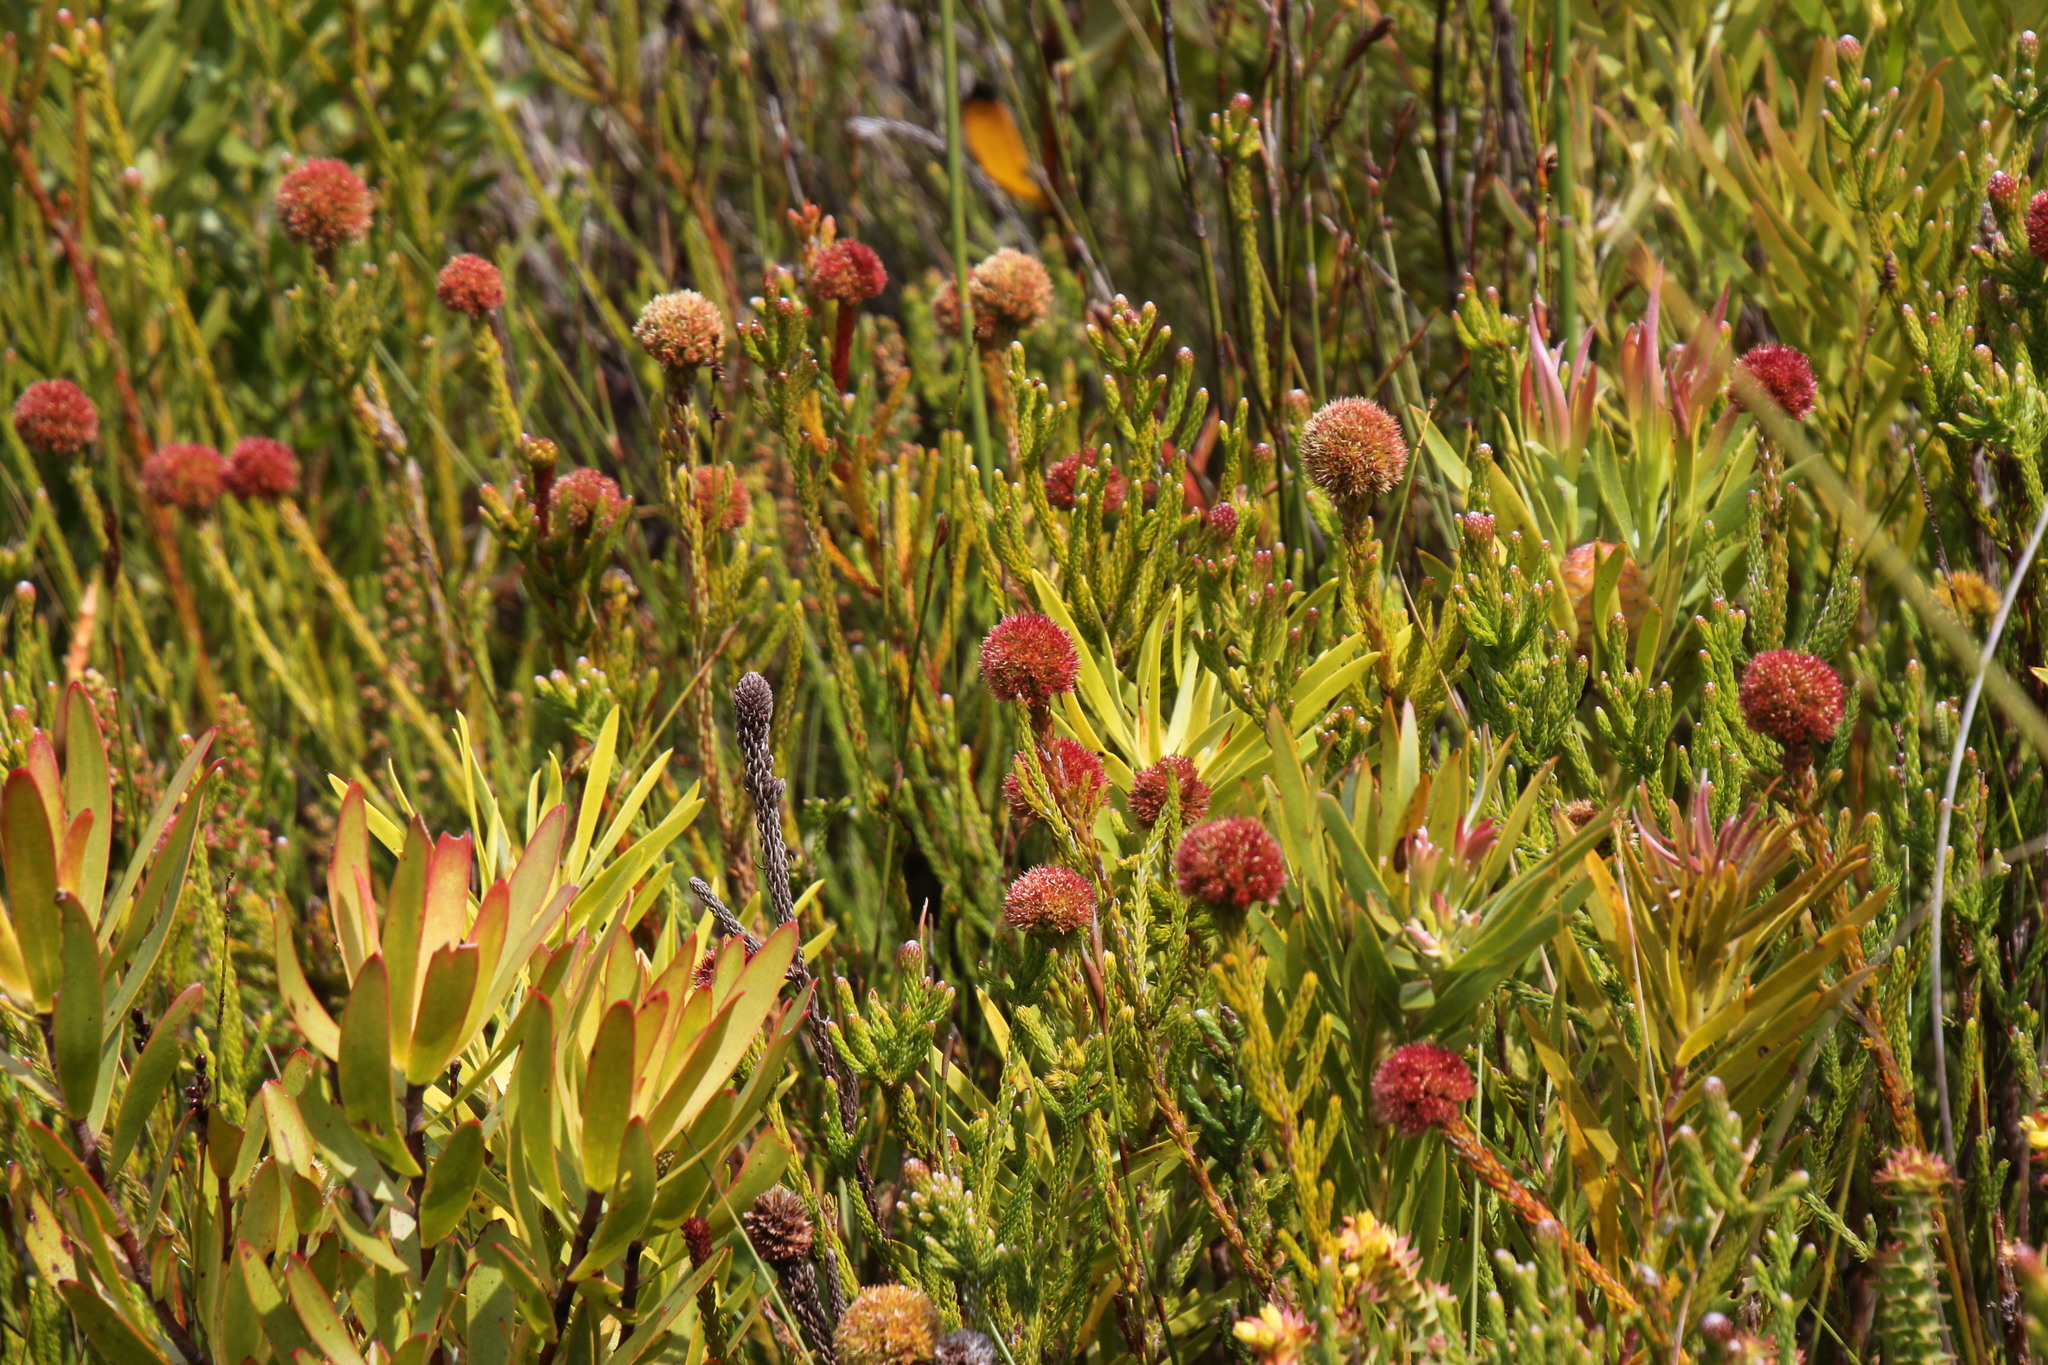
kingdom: Plantae
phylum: Tracheophyta
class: Magnoliopsida
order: Bruniales
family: Bruniaceae
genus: Brunia
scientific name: Brunia fragarioides
